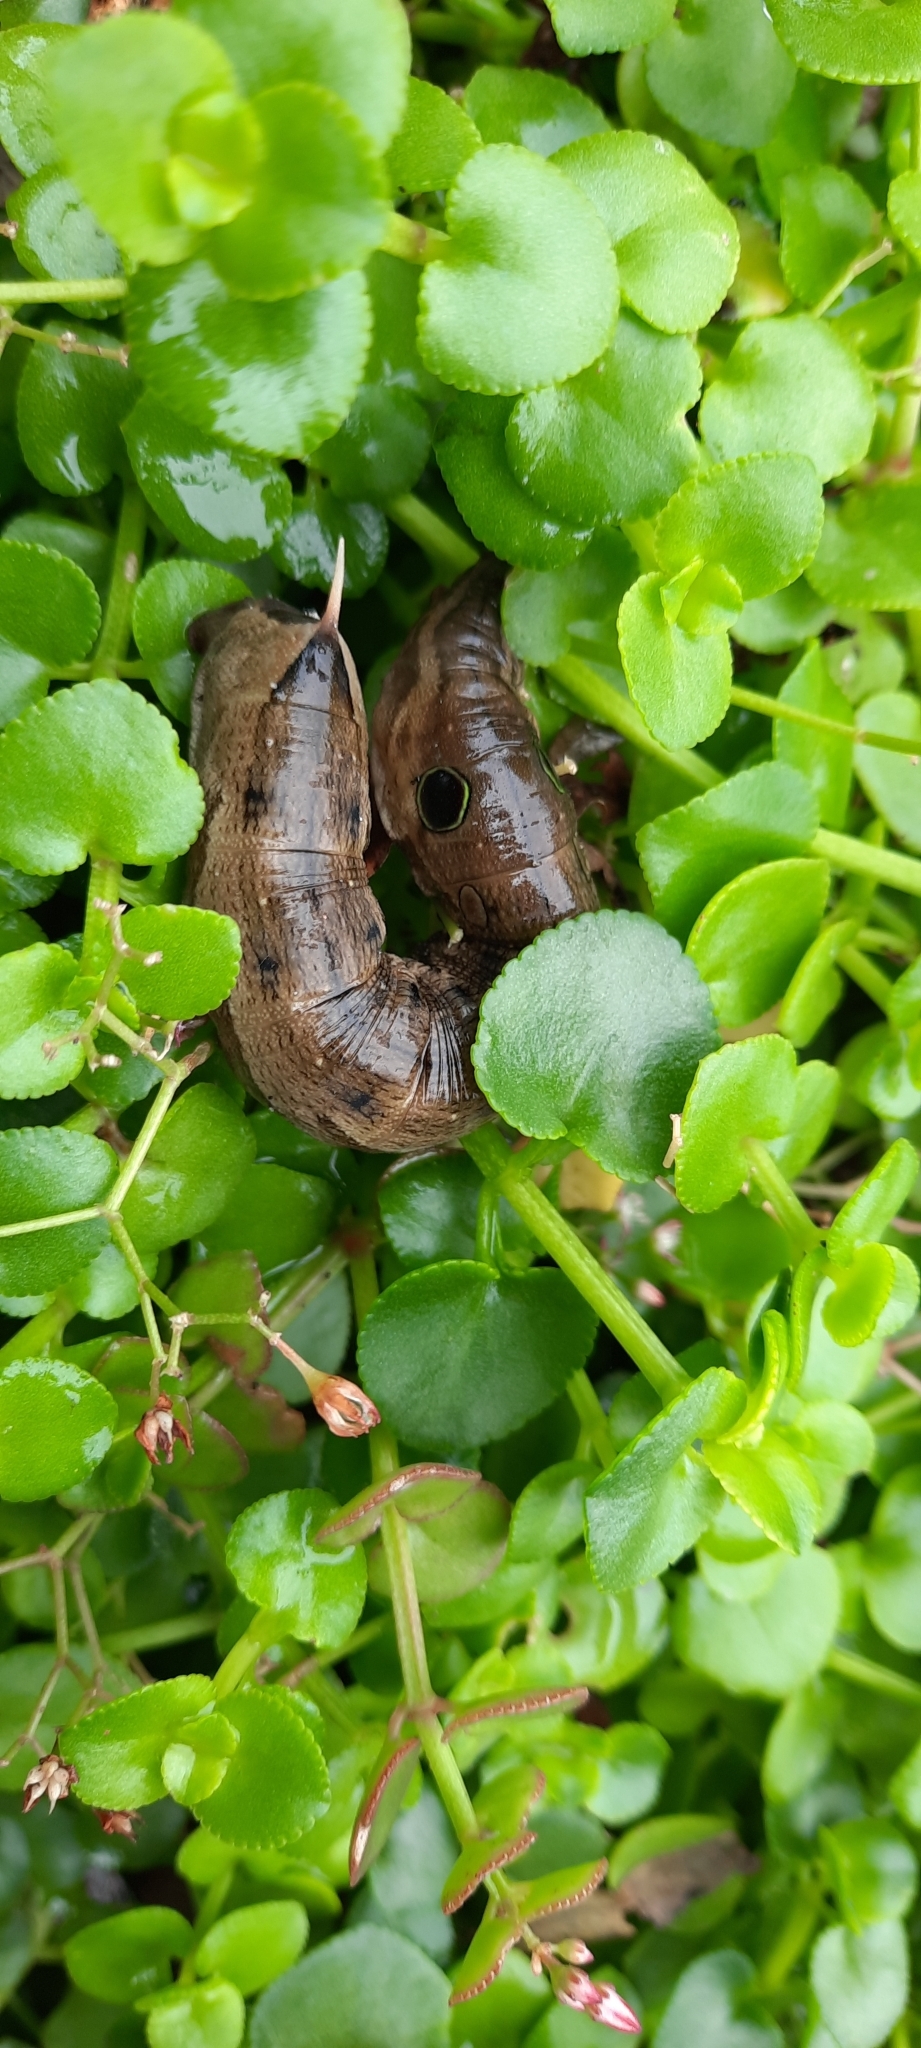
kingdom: Animalia
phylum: Arthropoda
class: Insecta
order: Lepidoptera
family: Sphingidae
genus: Hippotion
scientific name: Hippotion eson
